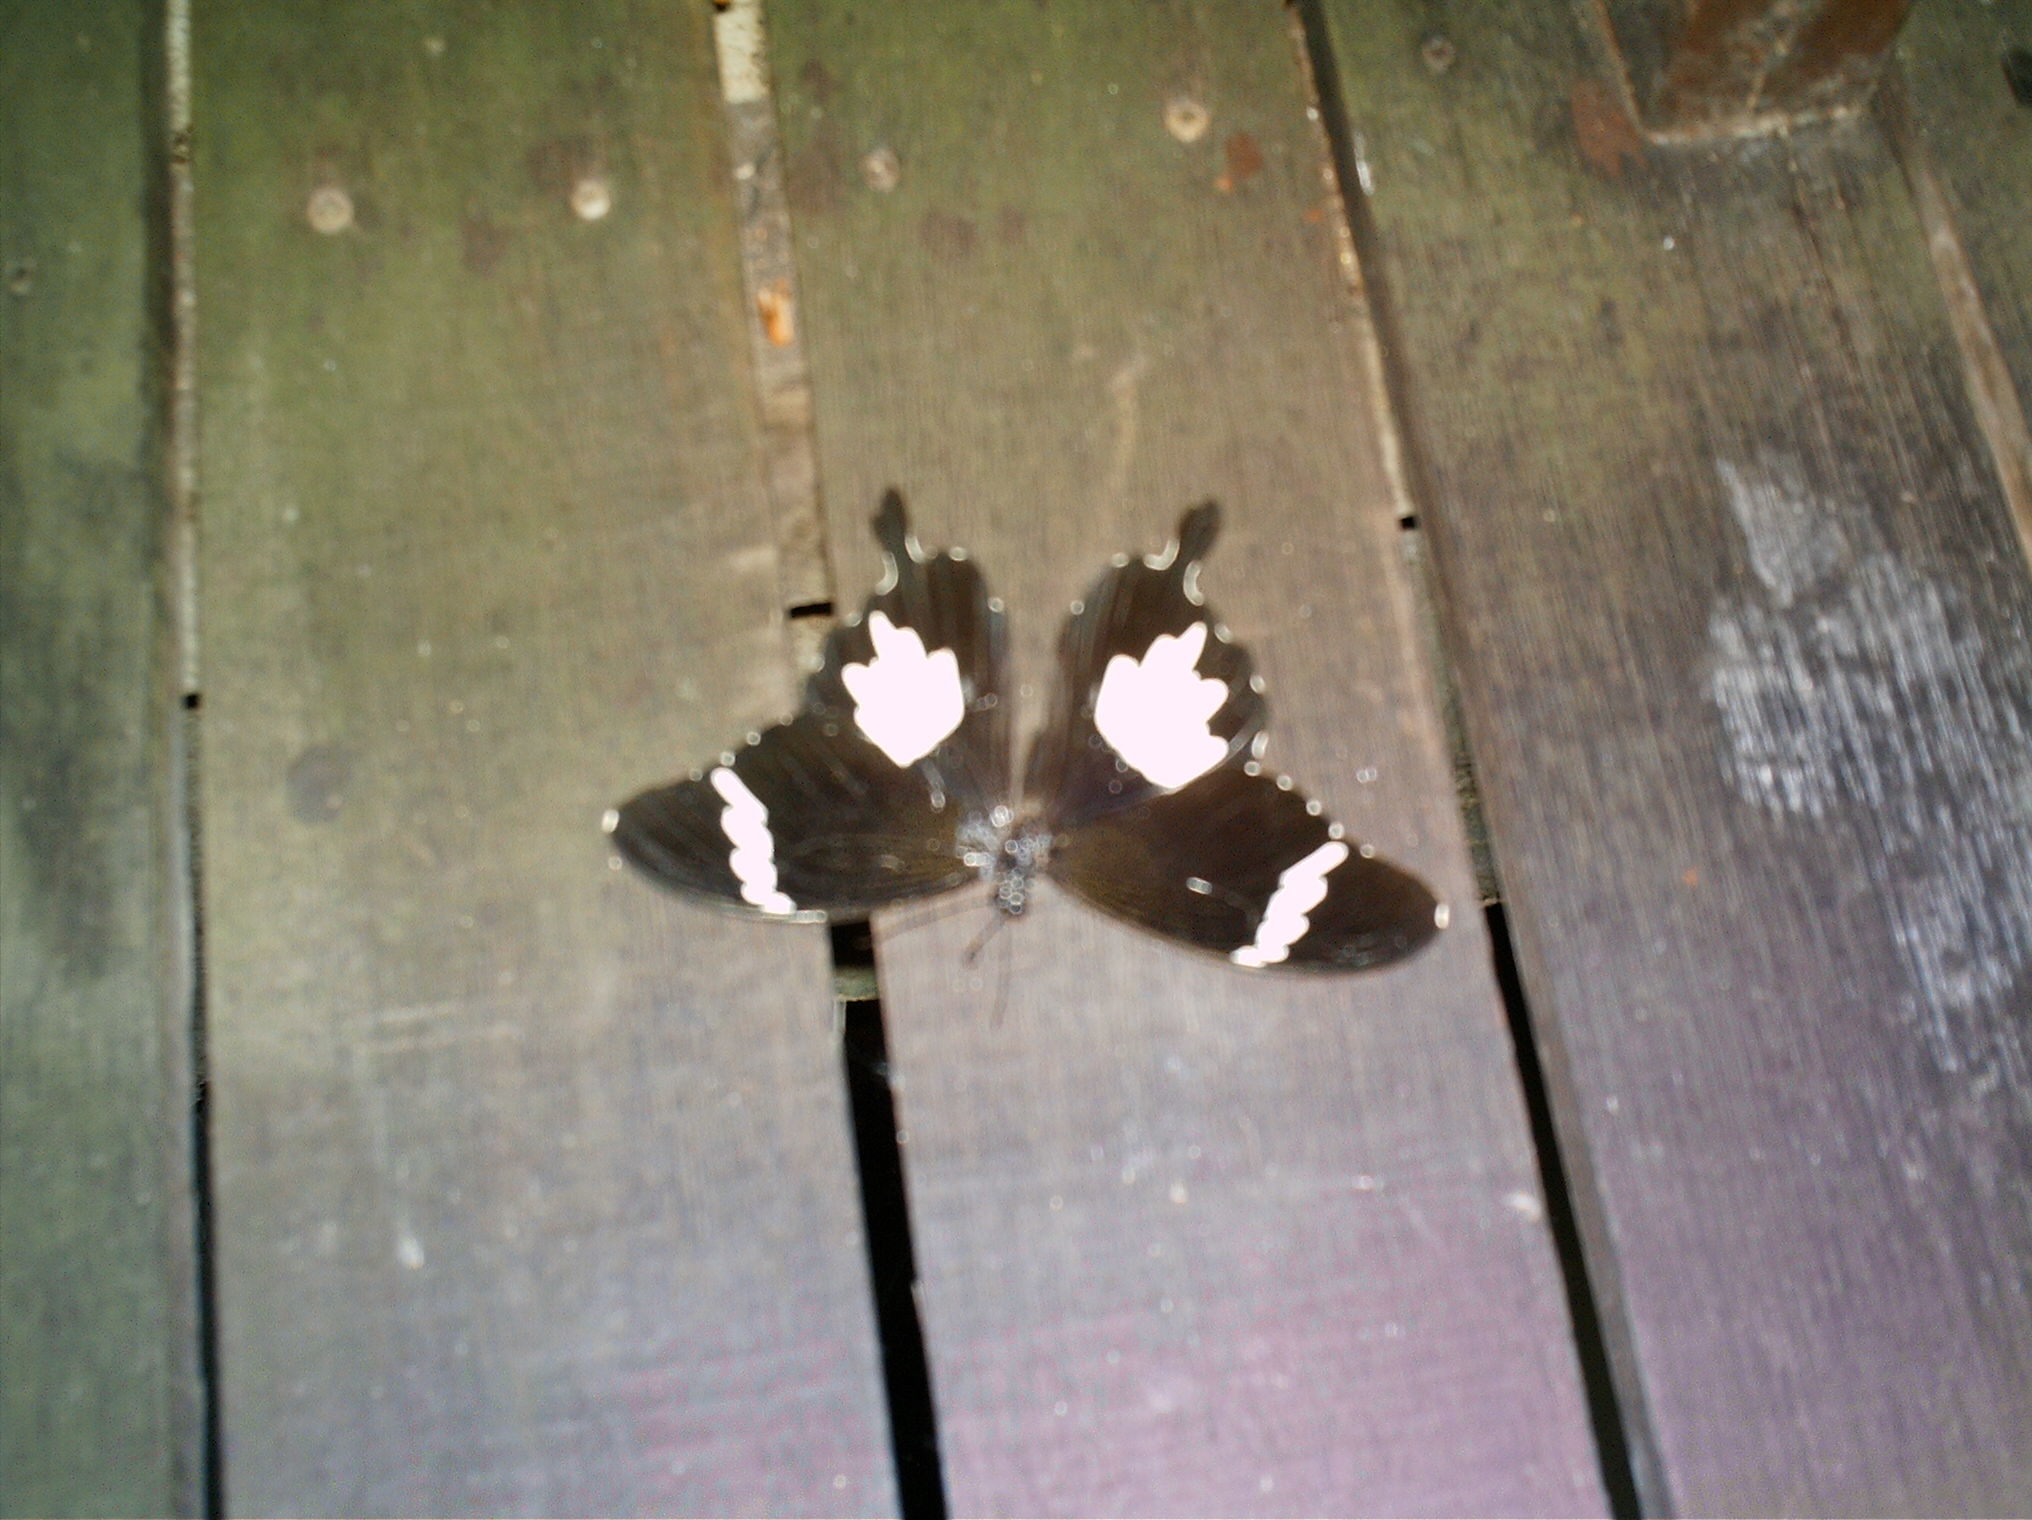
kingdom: Animalia
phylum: Arthropoda
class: Insecta
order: Lepidoptera
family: Papilionidae
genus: Papilio
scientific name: Papilio nephelus
